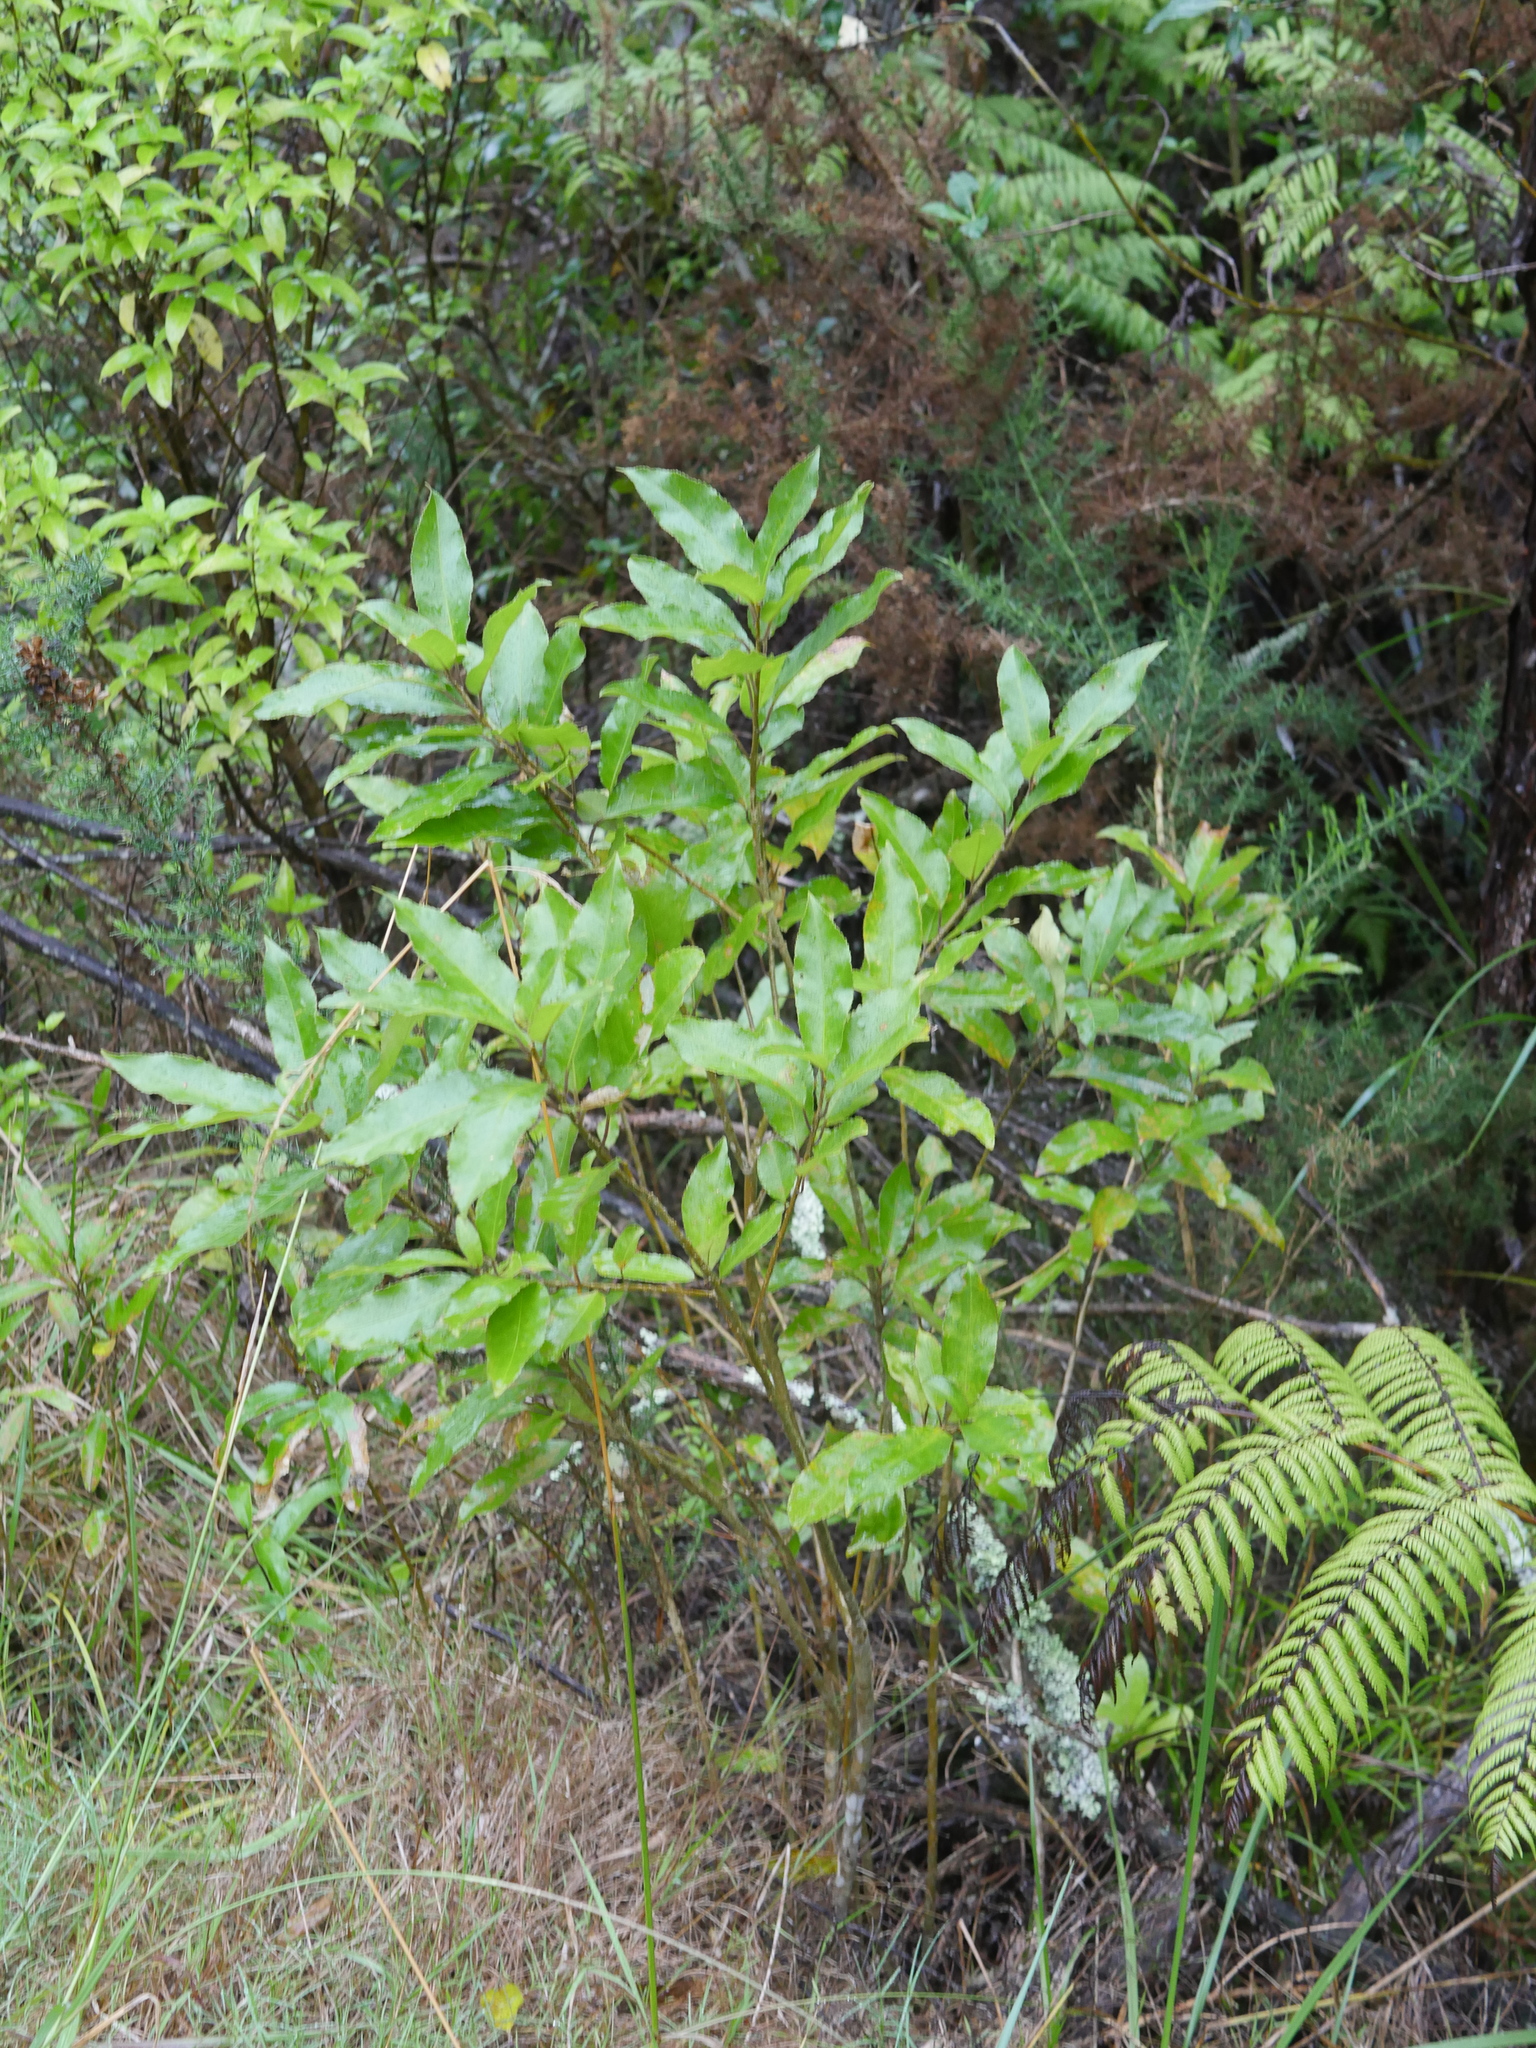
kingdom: Plantae
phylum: Tracheophyta
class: Magnoliopsida
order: Malpighiales
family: Violaceae
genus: Melicytus
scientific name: Melicytus ramiflorus
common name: Mahoe
